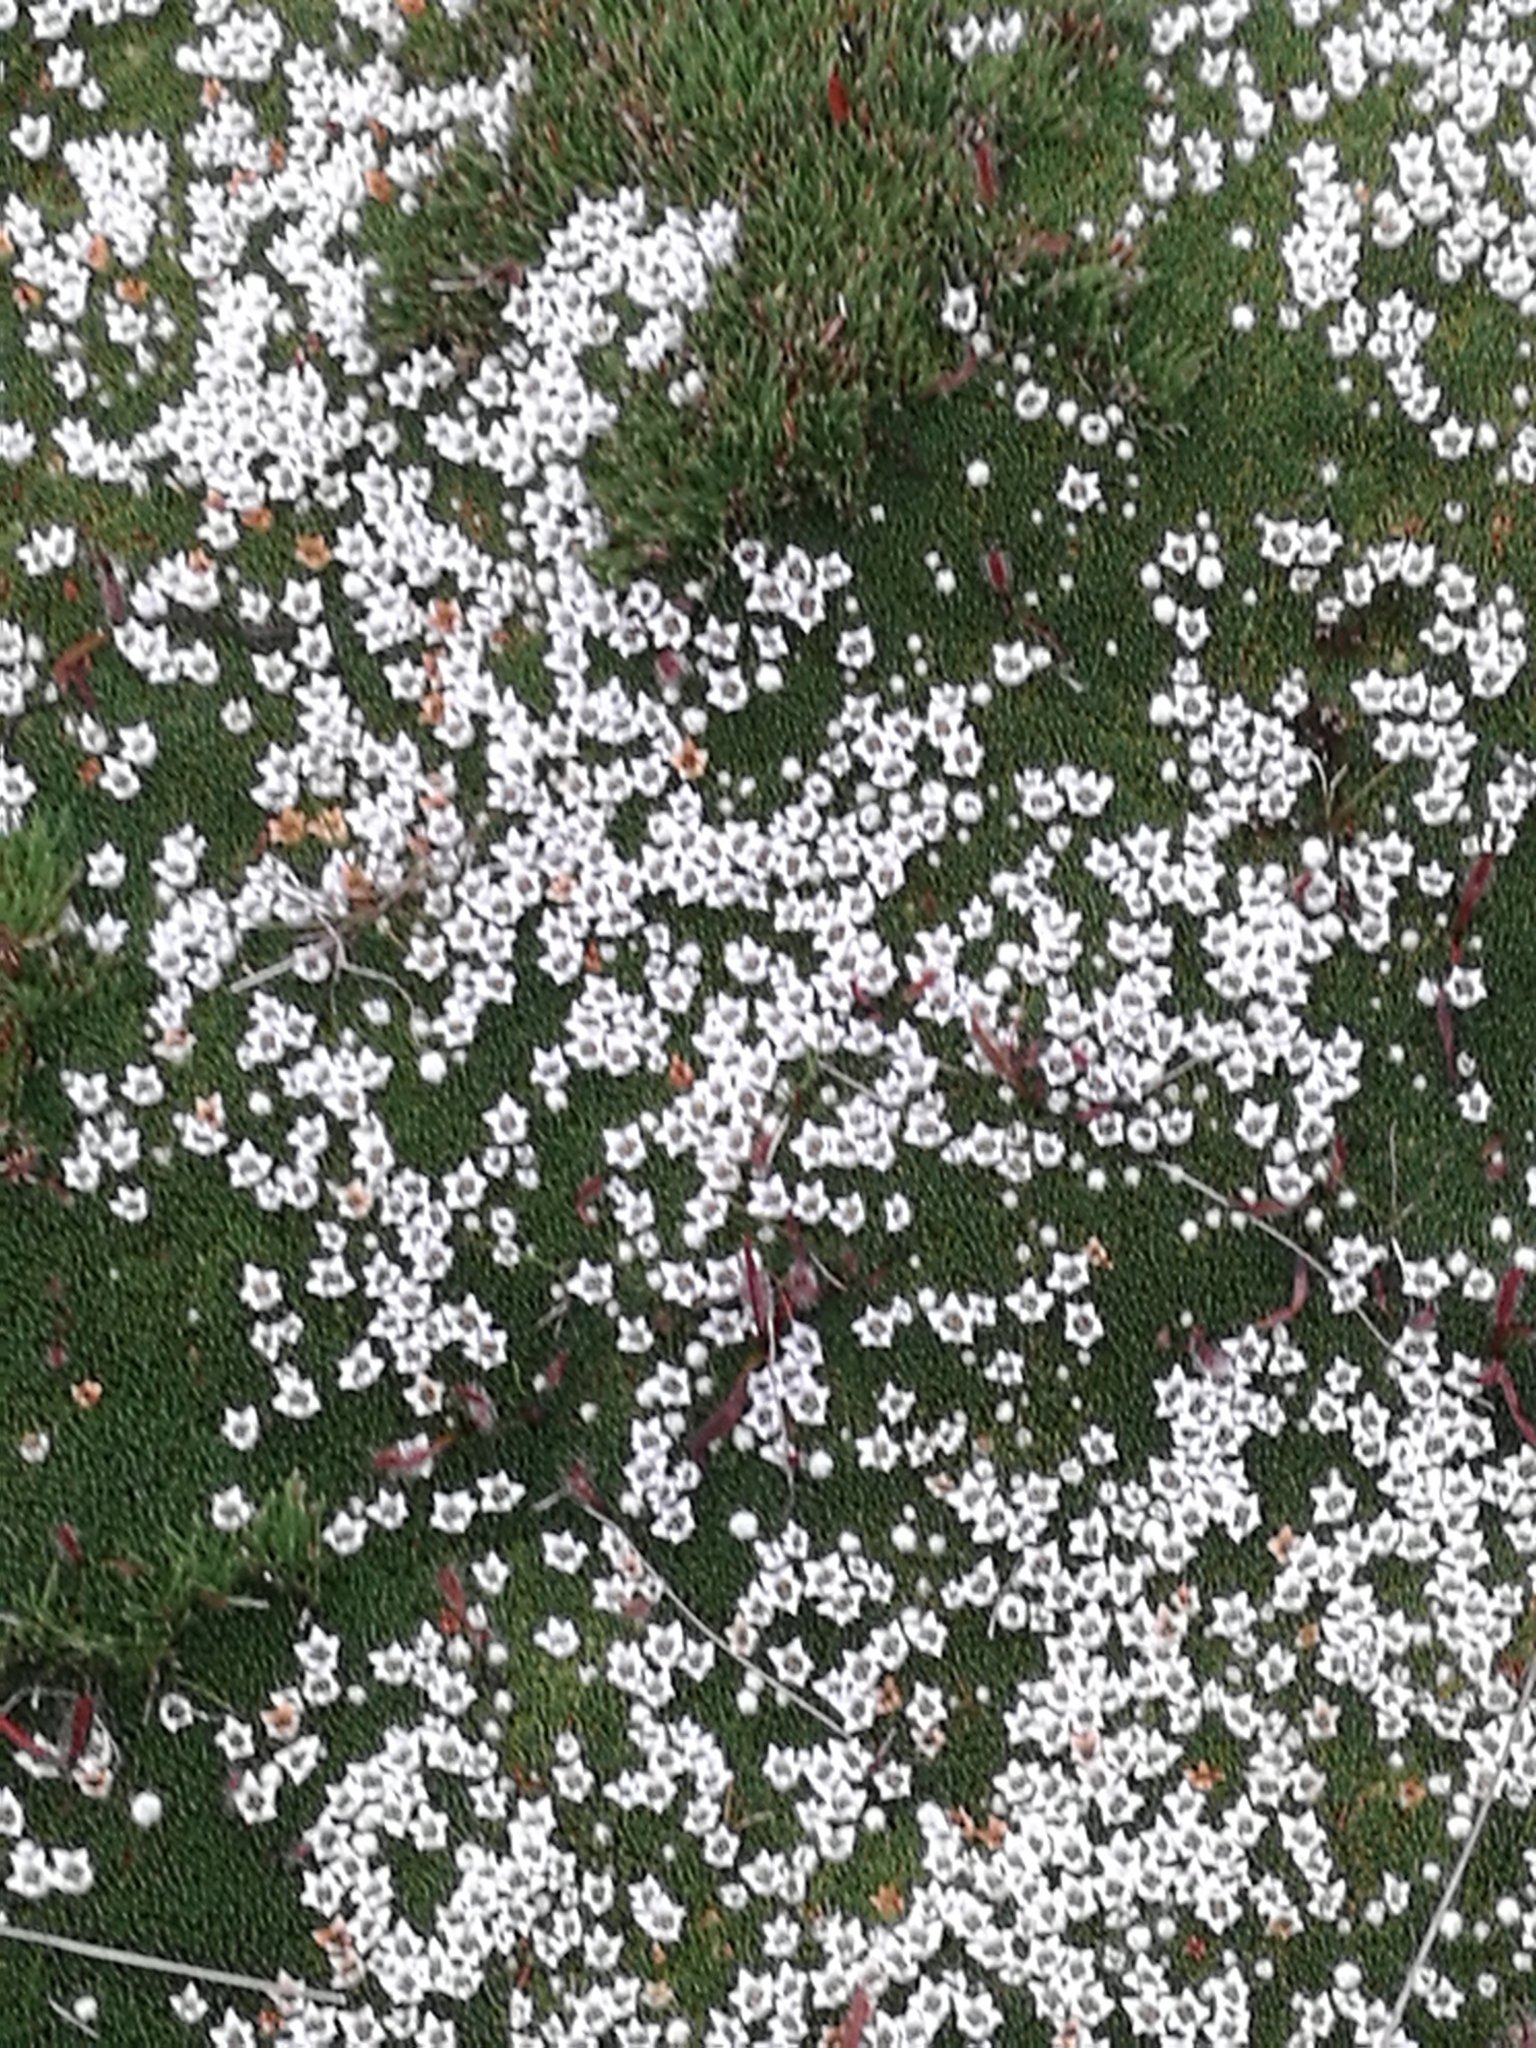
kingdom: Plantae
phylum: Tracheophyta
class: Magnoliopsida
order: Asterales
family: Stylidiaceae
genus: Phyllachne
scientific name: Phyllachne colensoi
